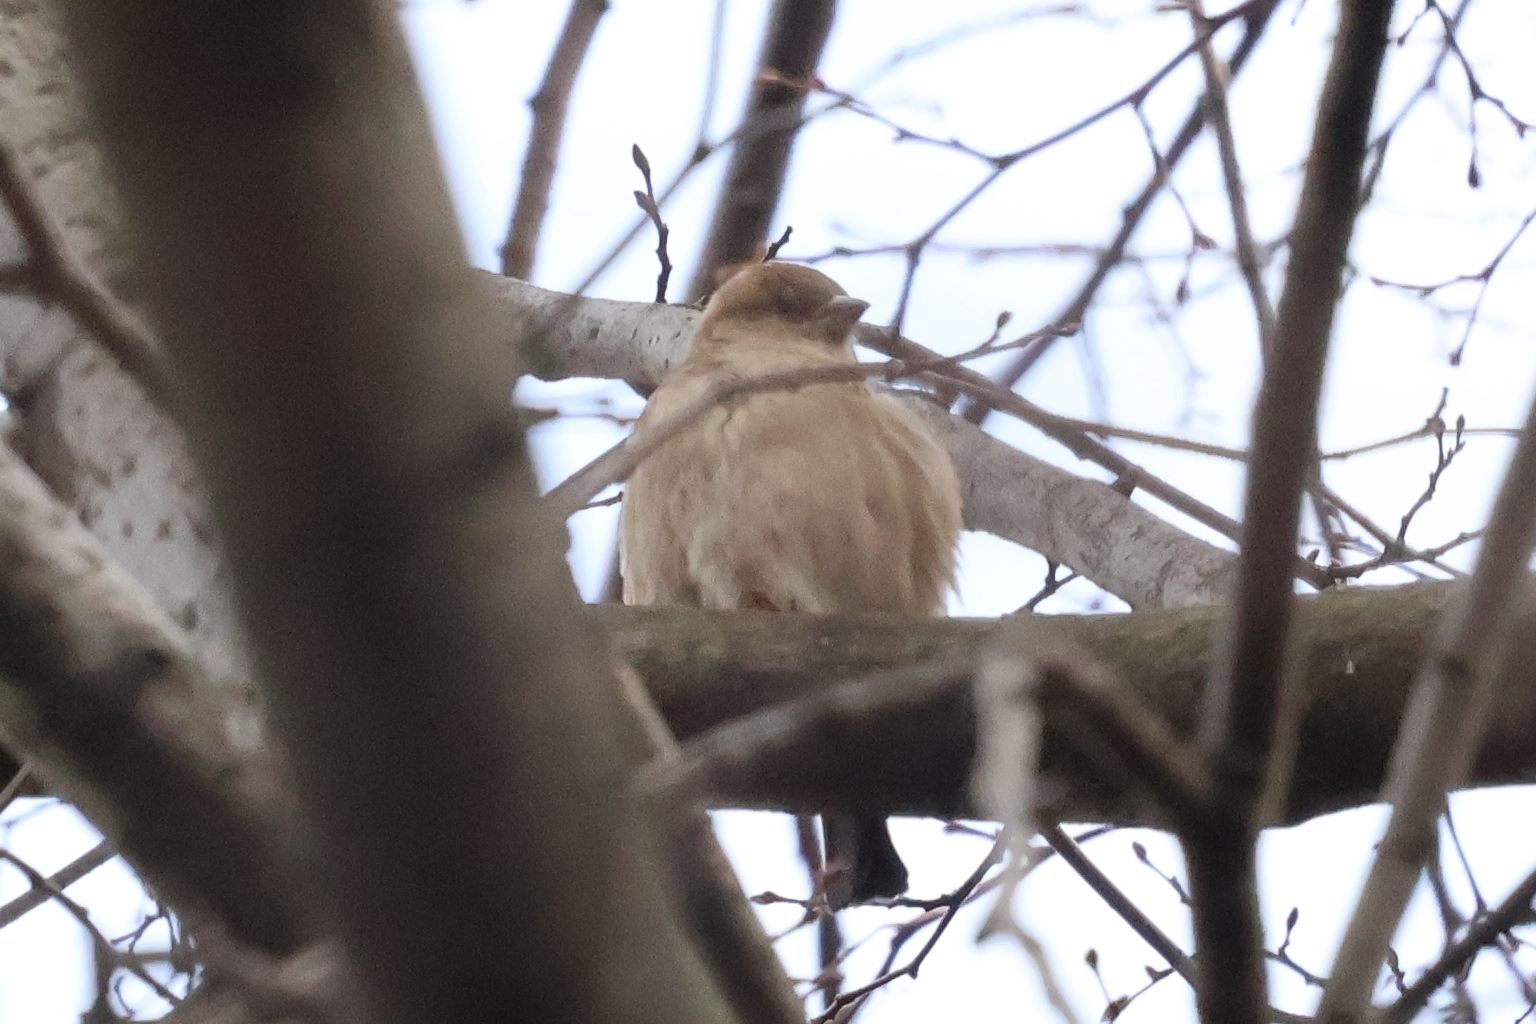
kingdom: Animalia
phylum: Chordata
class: Aves
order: Passeriformes
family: Passeridae
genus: Passer
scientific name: Passer domesticus
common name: House sparrow
